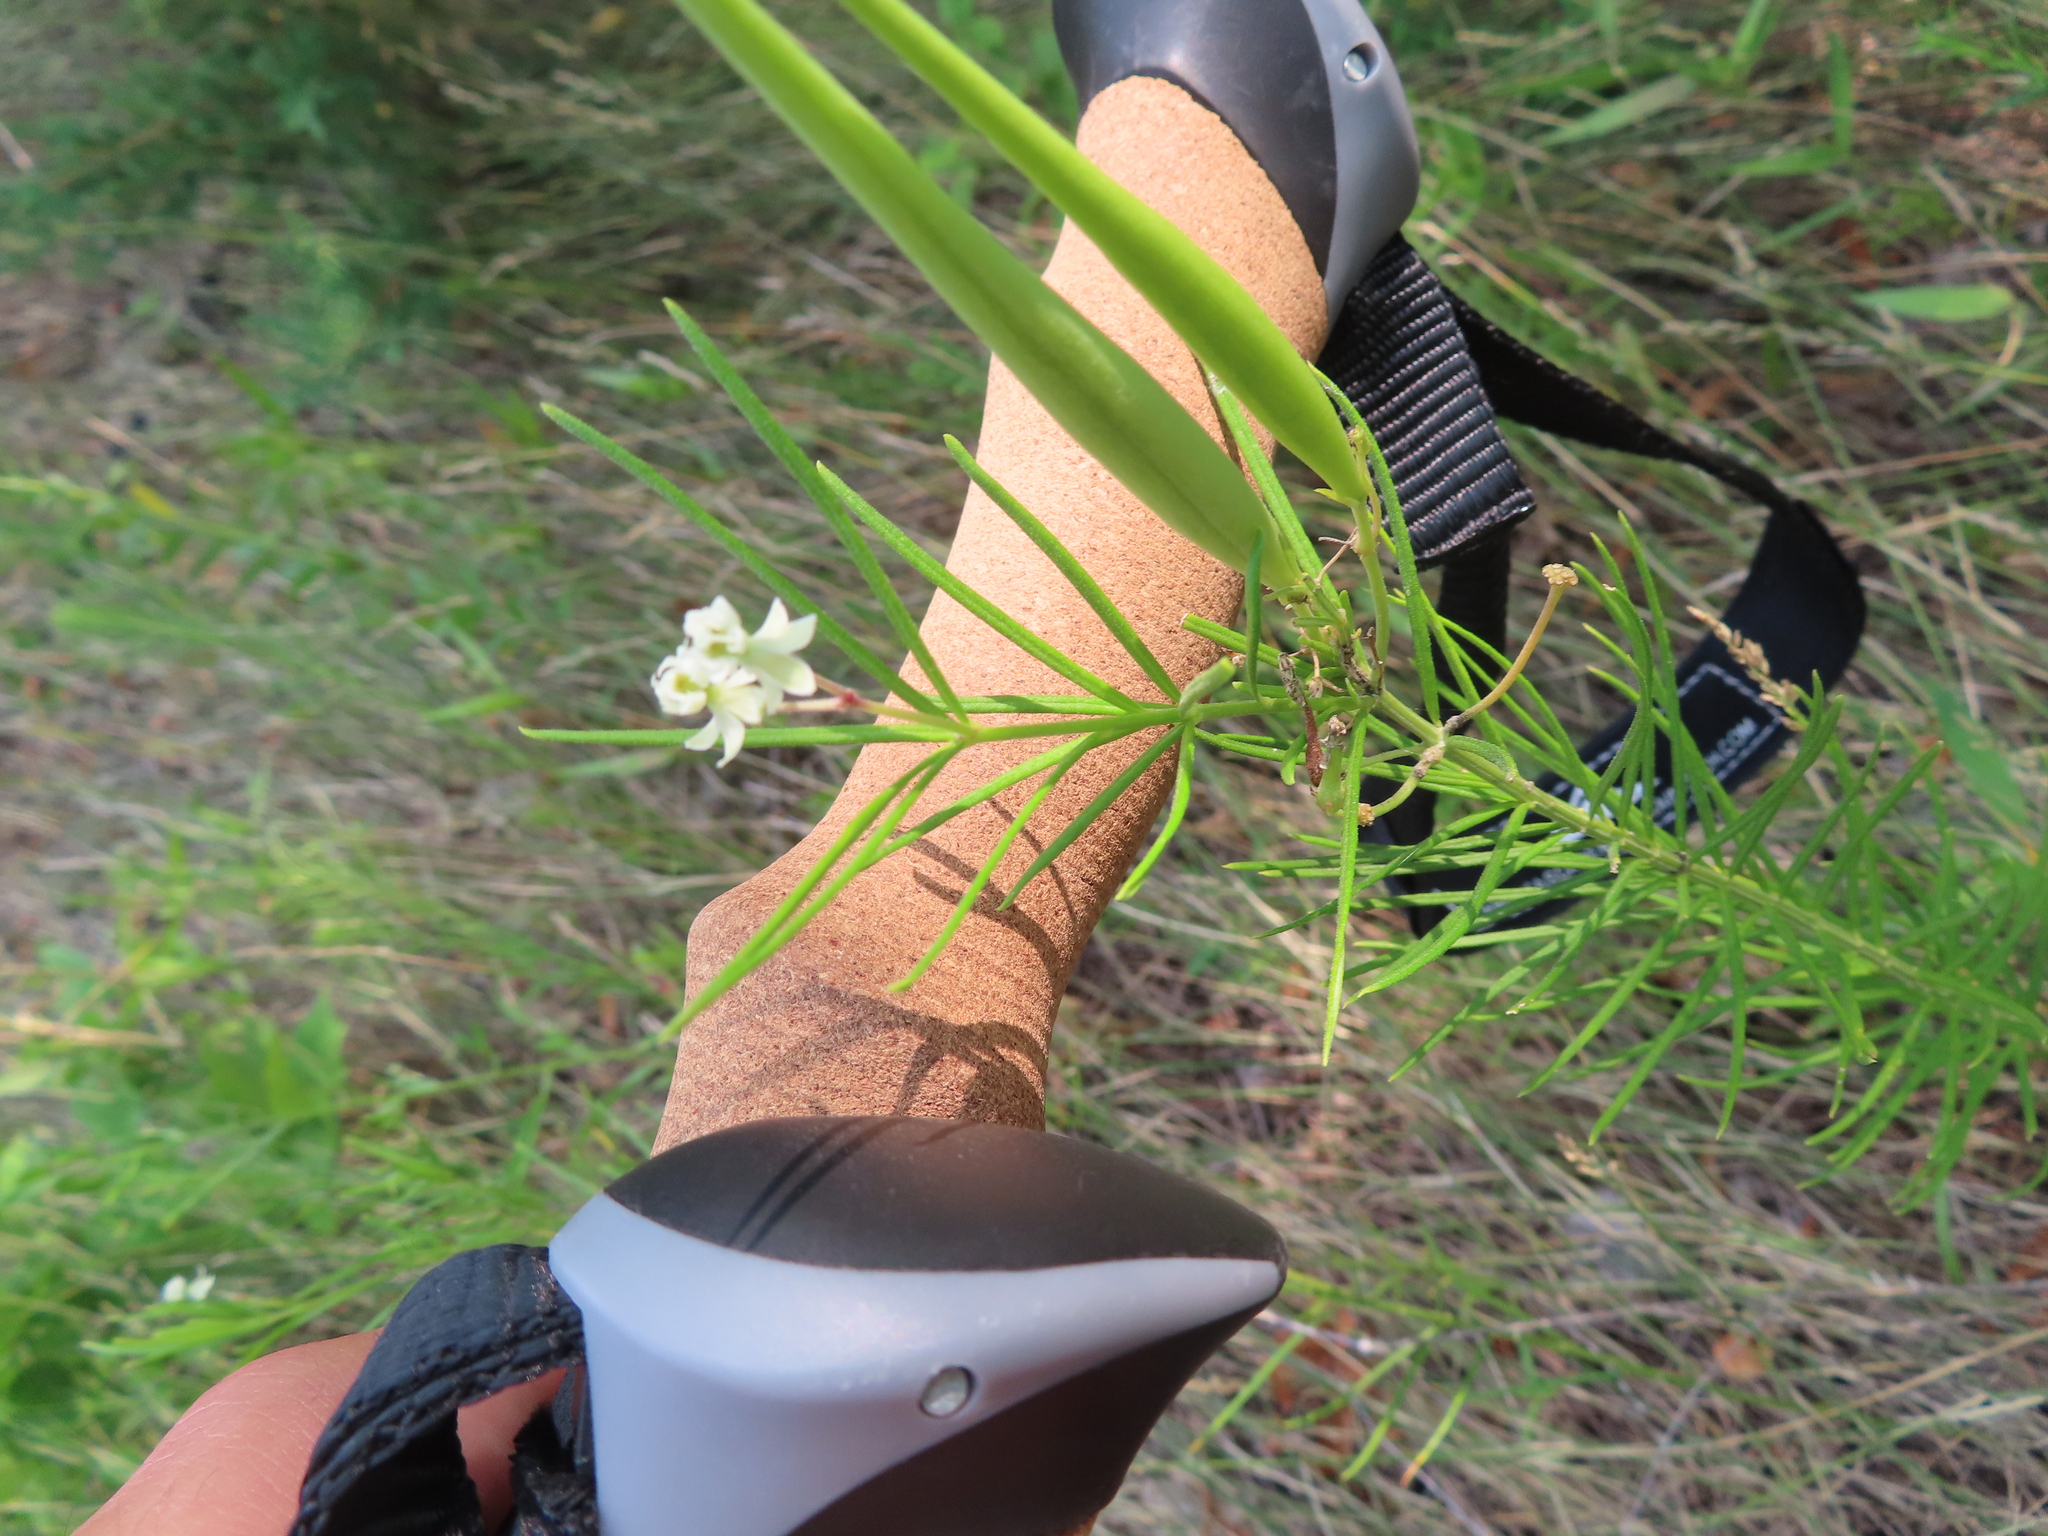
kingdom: Plantae
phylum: Tracheophyta
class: Magnoliopsida
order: Gentianales
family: Apocynaceae
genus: Asclepias
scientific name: Asclepias verticillata
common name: Eastern whorled milkweed
